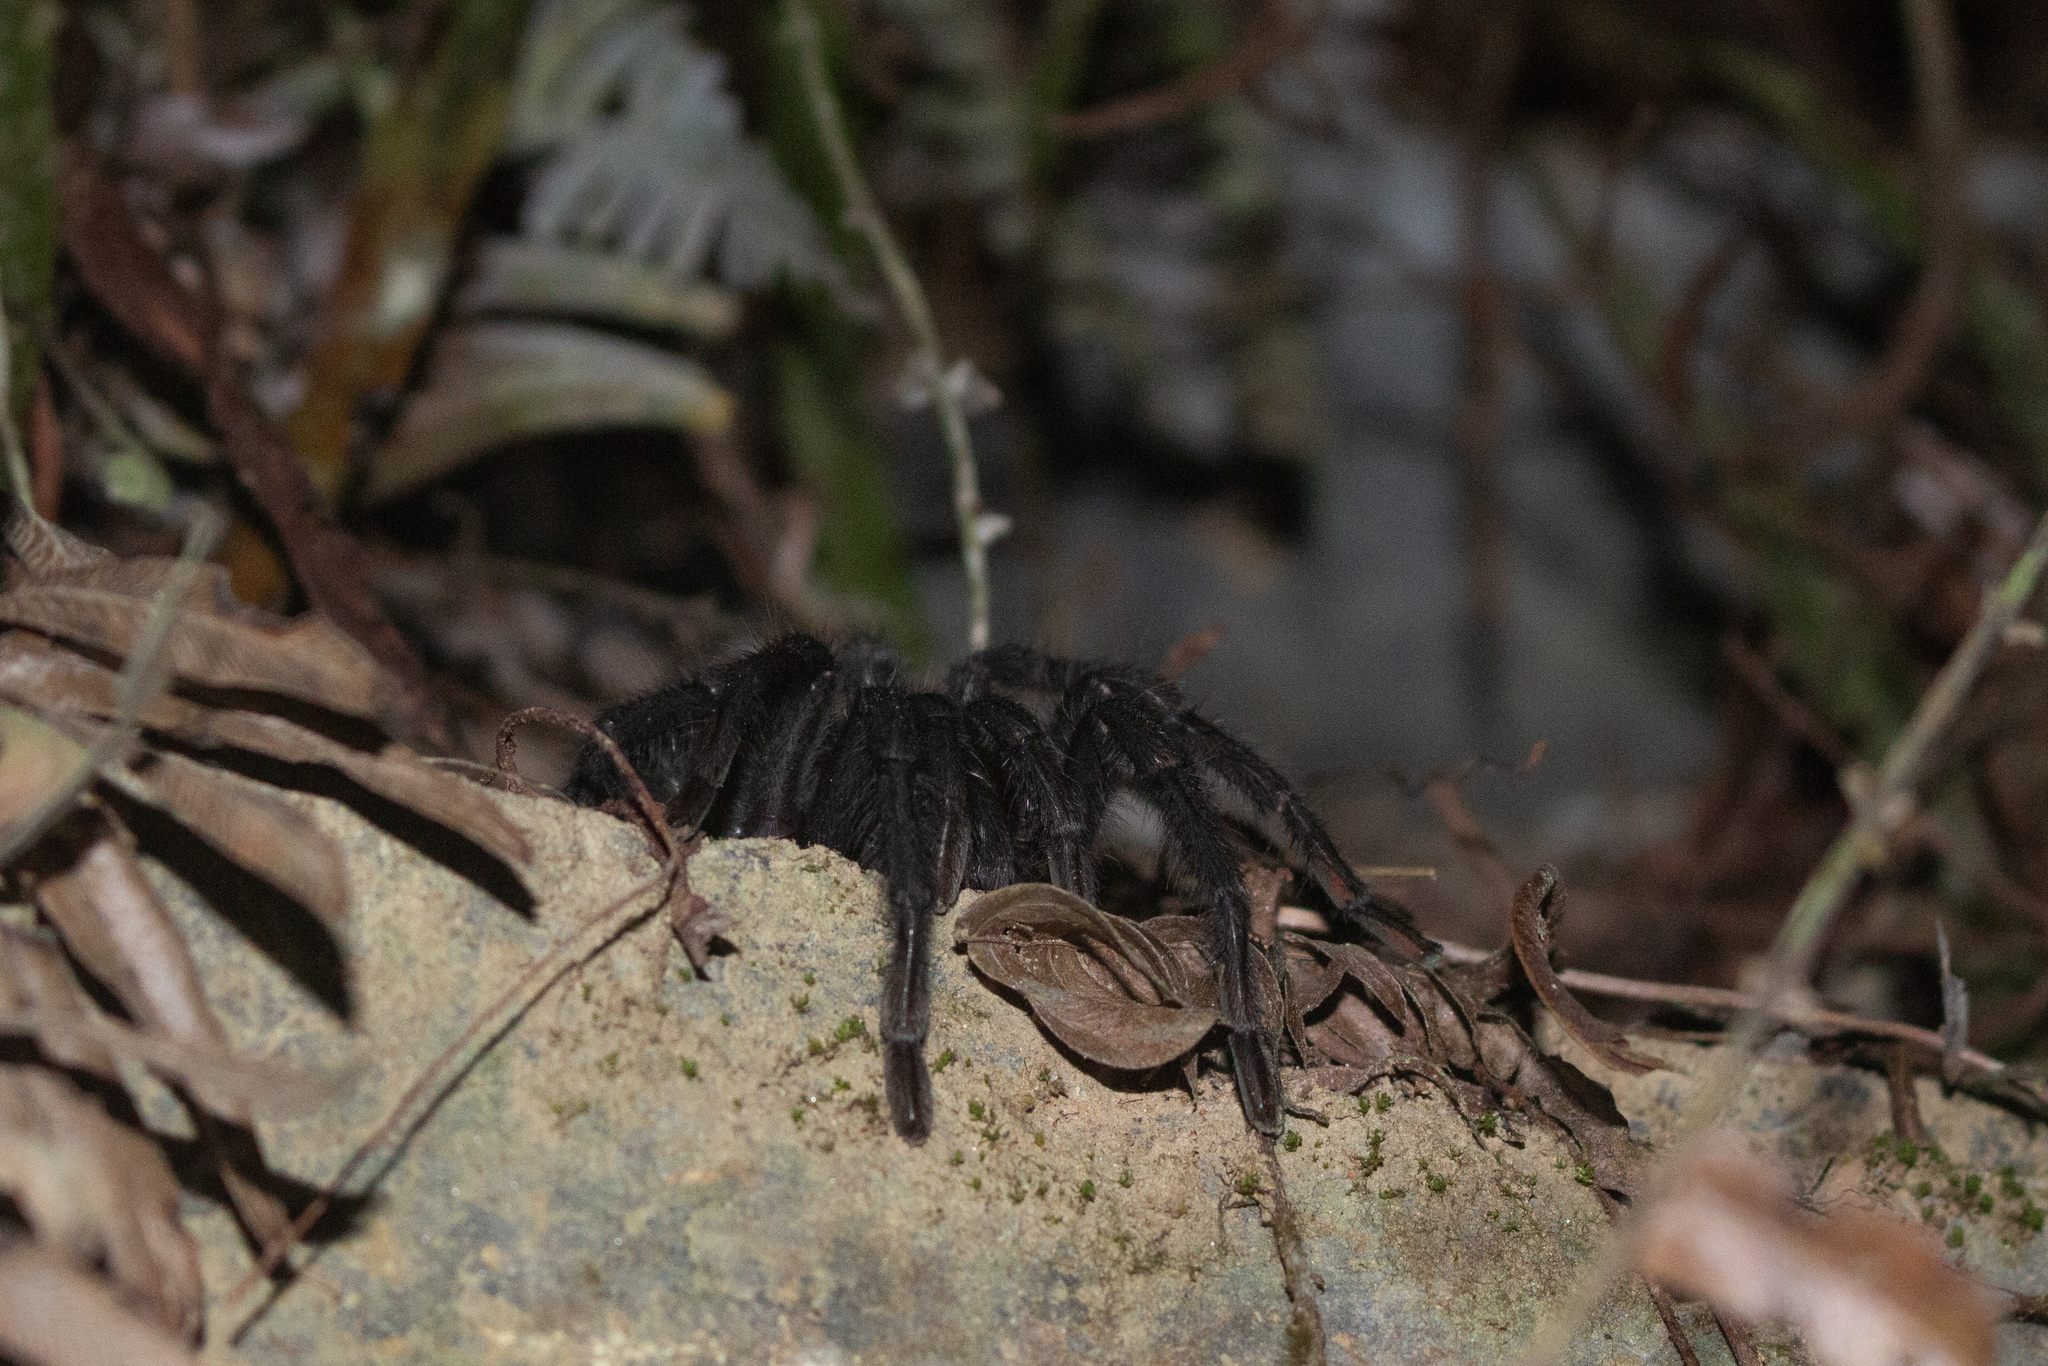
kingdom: Animalia
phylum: Arthropoda
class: Arachnida
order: Araneae
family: Theraphosidae
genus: Kankuamo
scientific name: Kankuamo marquezi
